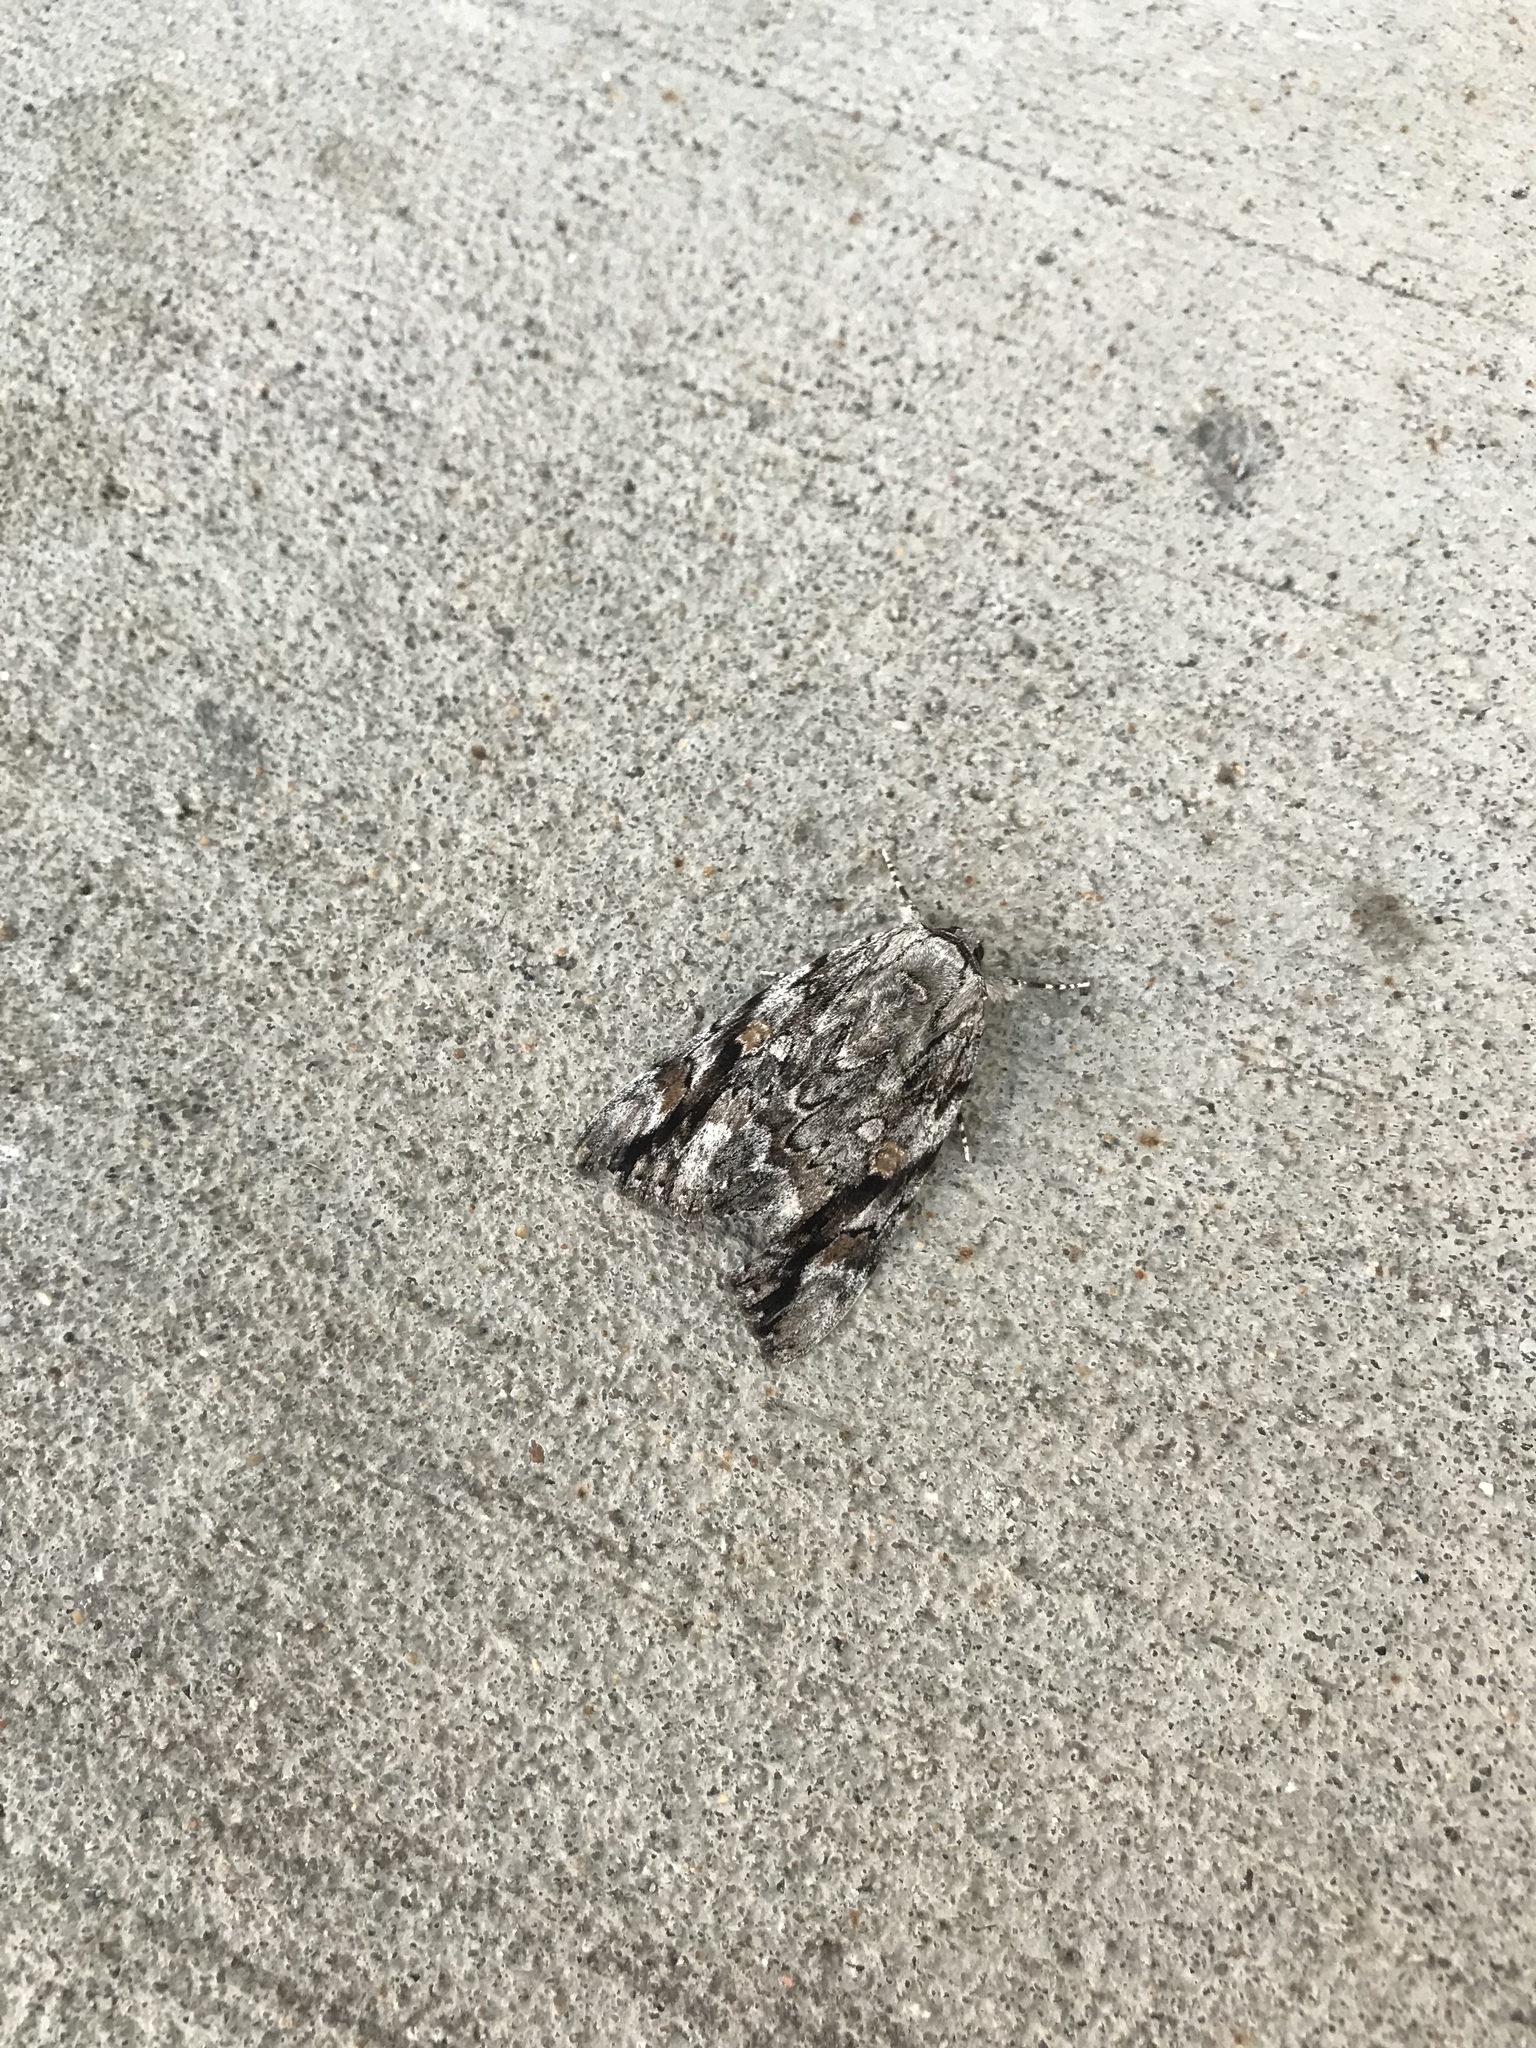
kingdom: Animalia
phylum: Arthropoda
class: Insecta
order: Lepidoptera
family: Erebidae
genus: Catocala
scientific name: Catocala maestosa
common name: Sad underwing
